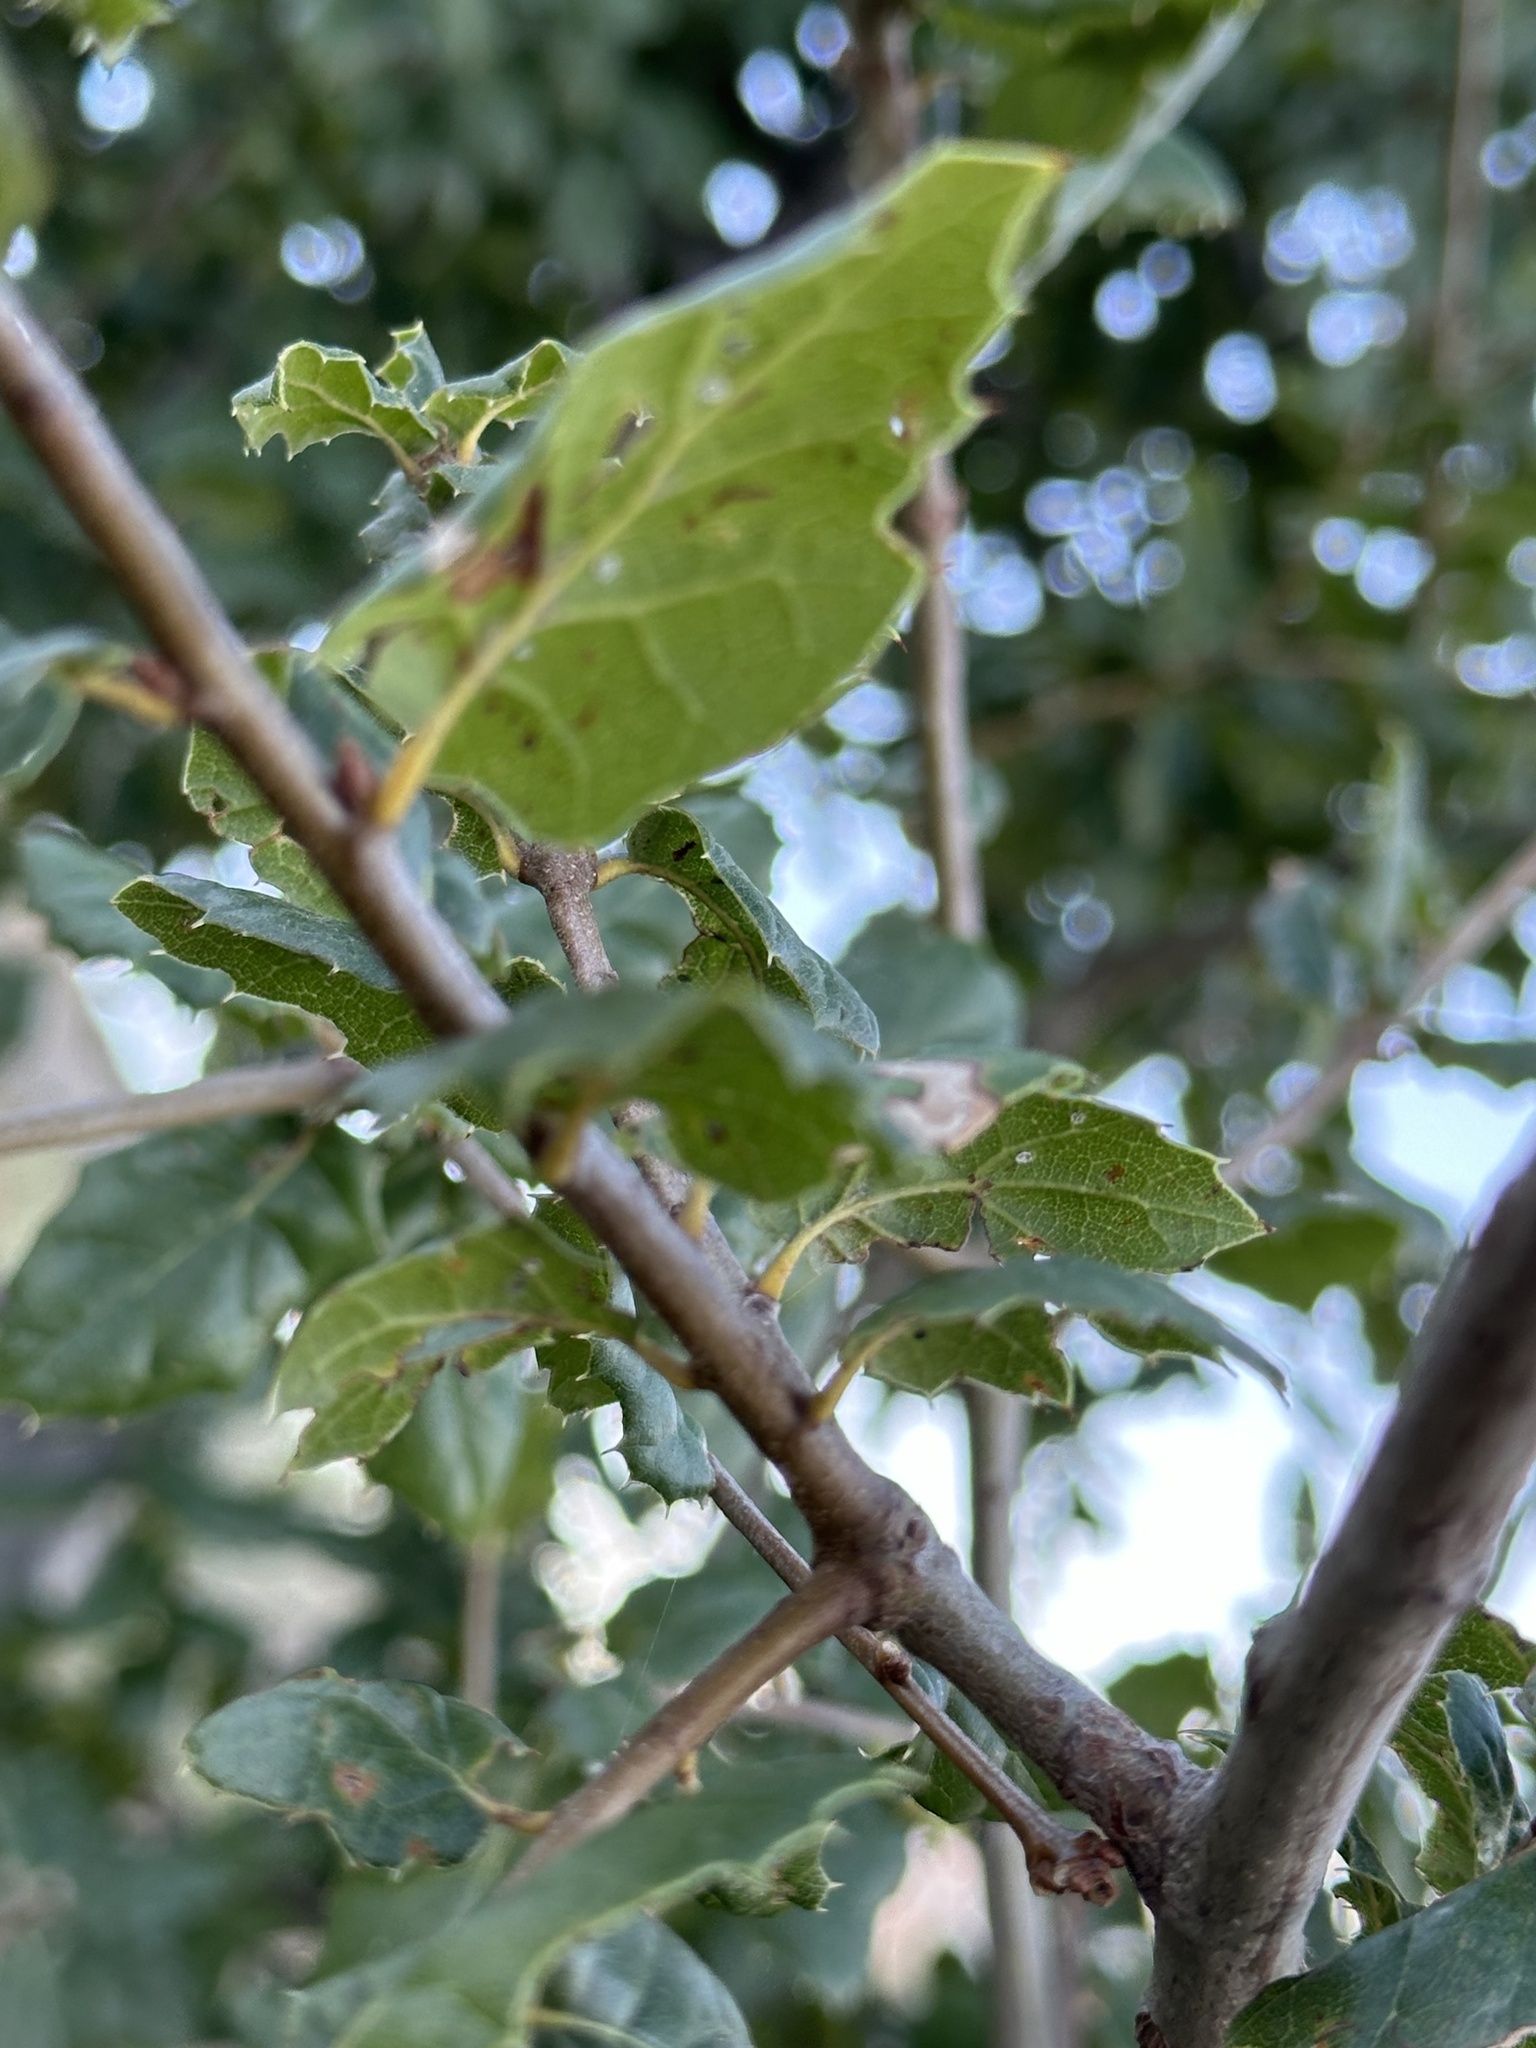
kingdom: Plantae
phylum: Tracheophyta
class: Magnoliopsida
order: Fagales
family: Fagaceae
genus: Quercus
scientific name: Quercus agrifolia
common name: California live oak
